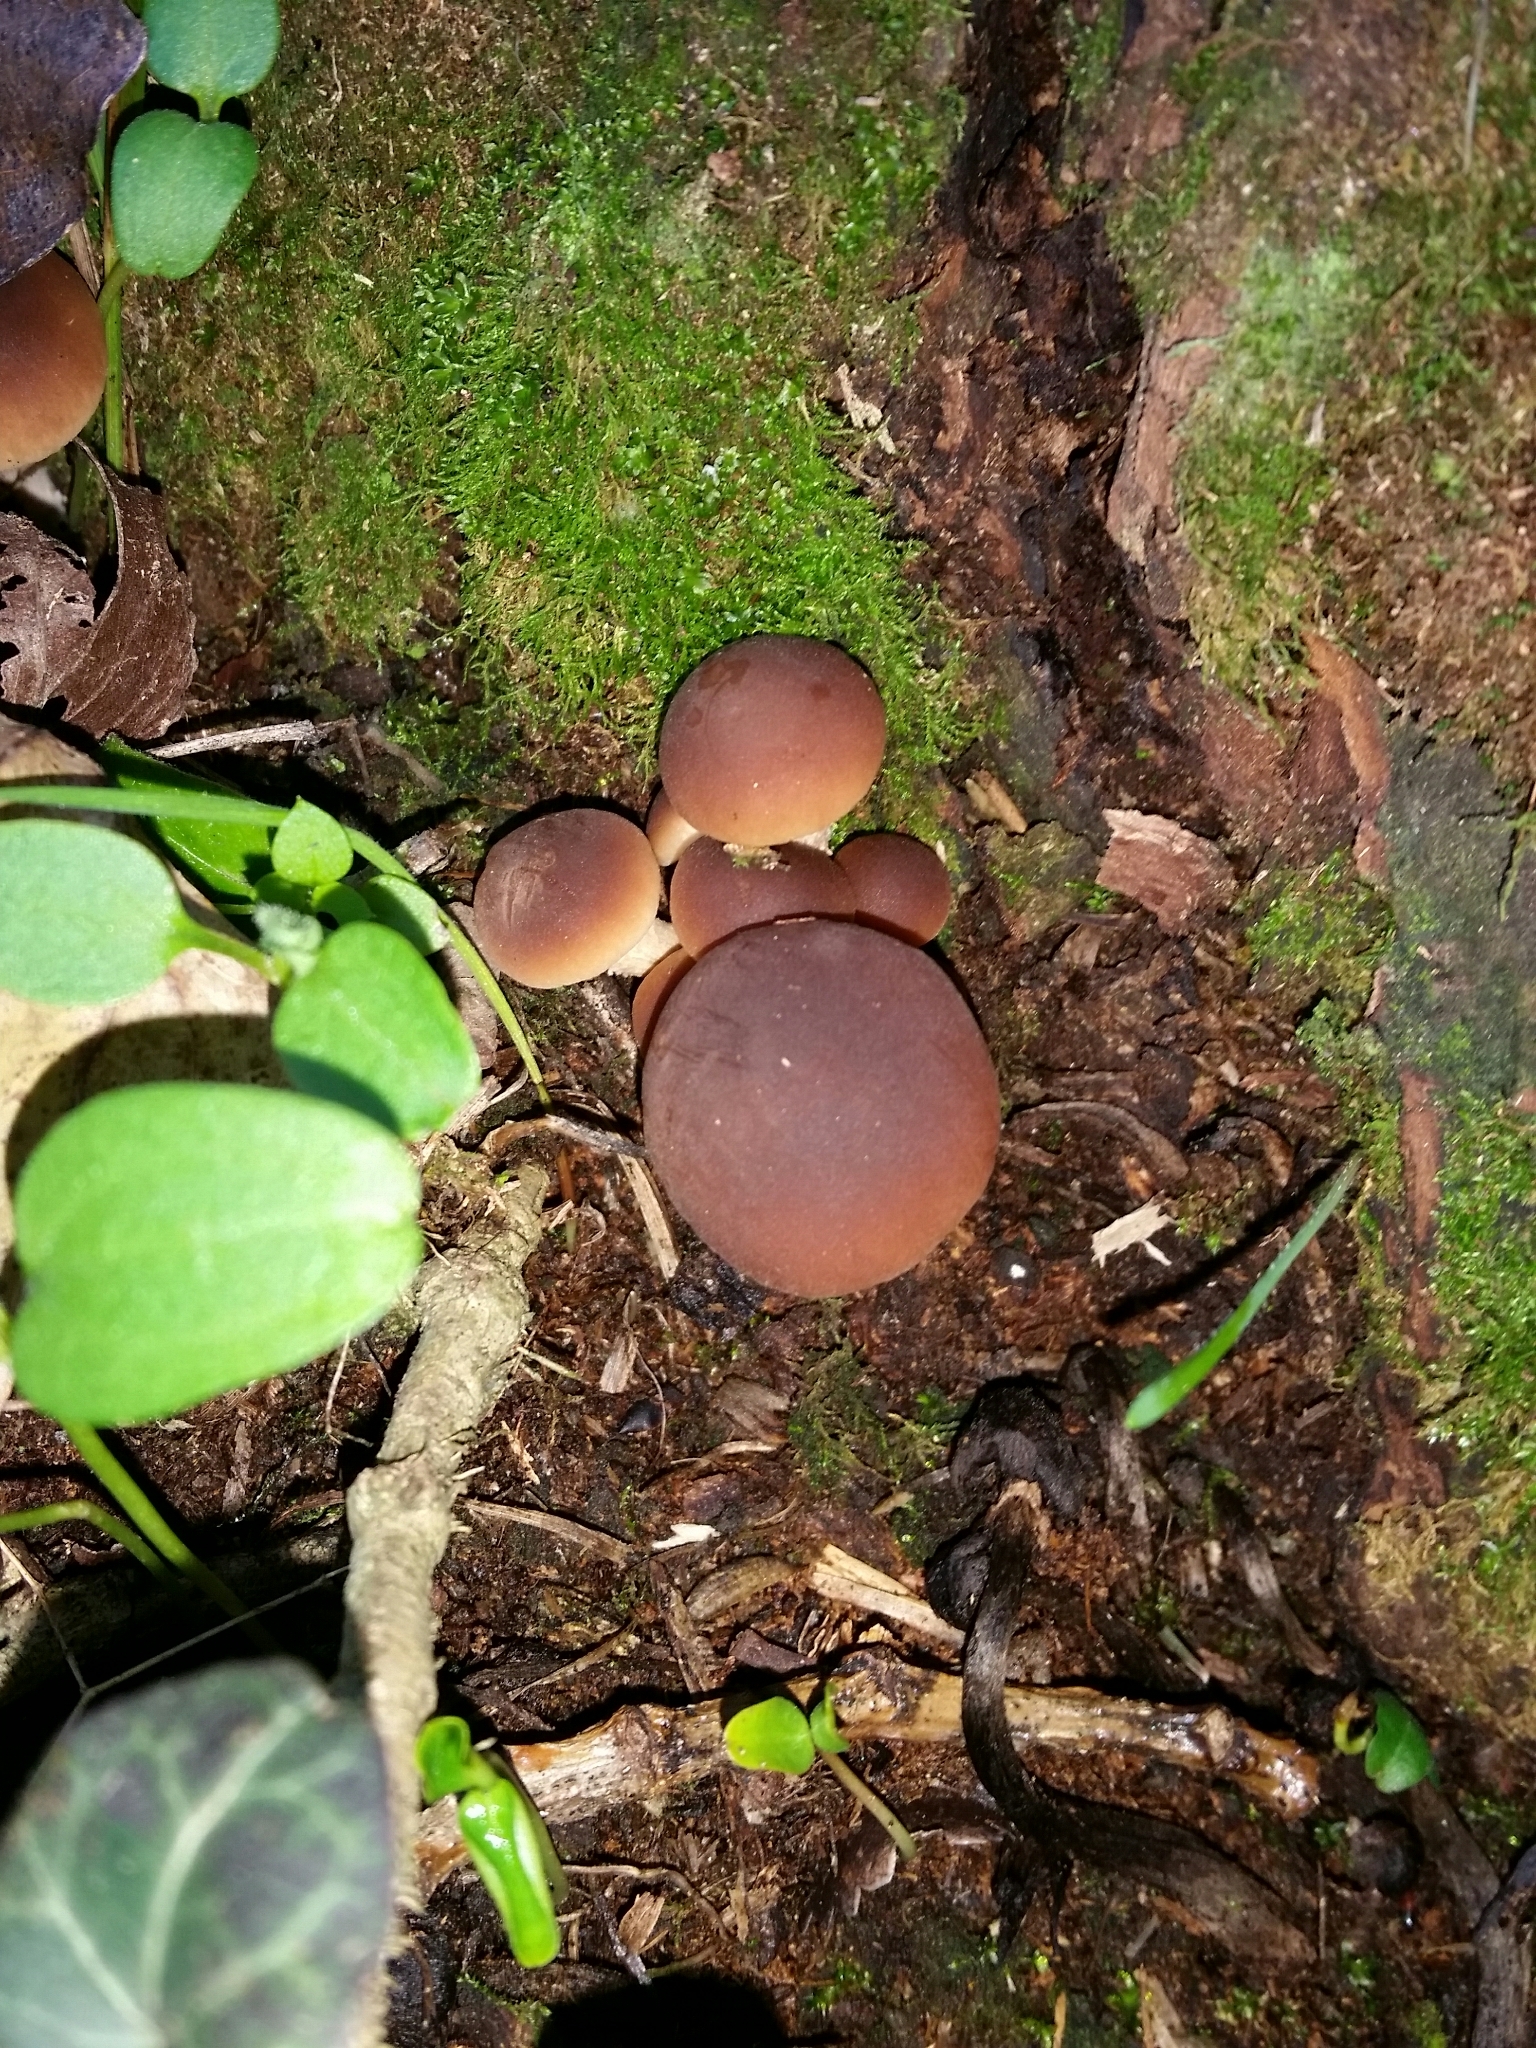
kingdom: Fungi
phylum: Basidiomycota
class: Agaricomycetes
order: Agaricales
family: Tubariaceae
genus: Cyclocybe
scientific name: Cyclocybe cylindracea
